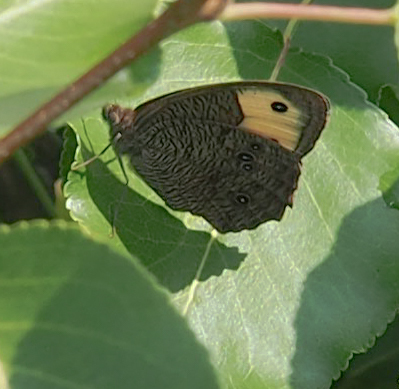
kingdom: Animalia
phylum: Arthropoda
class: Insecta
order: Lepidoptera
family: Nymphalidae
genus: Cercyonis
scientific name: Cercyonis pegala
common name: Common wood-nymph
